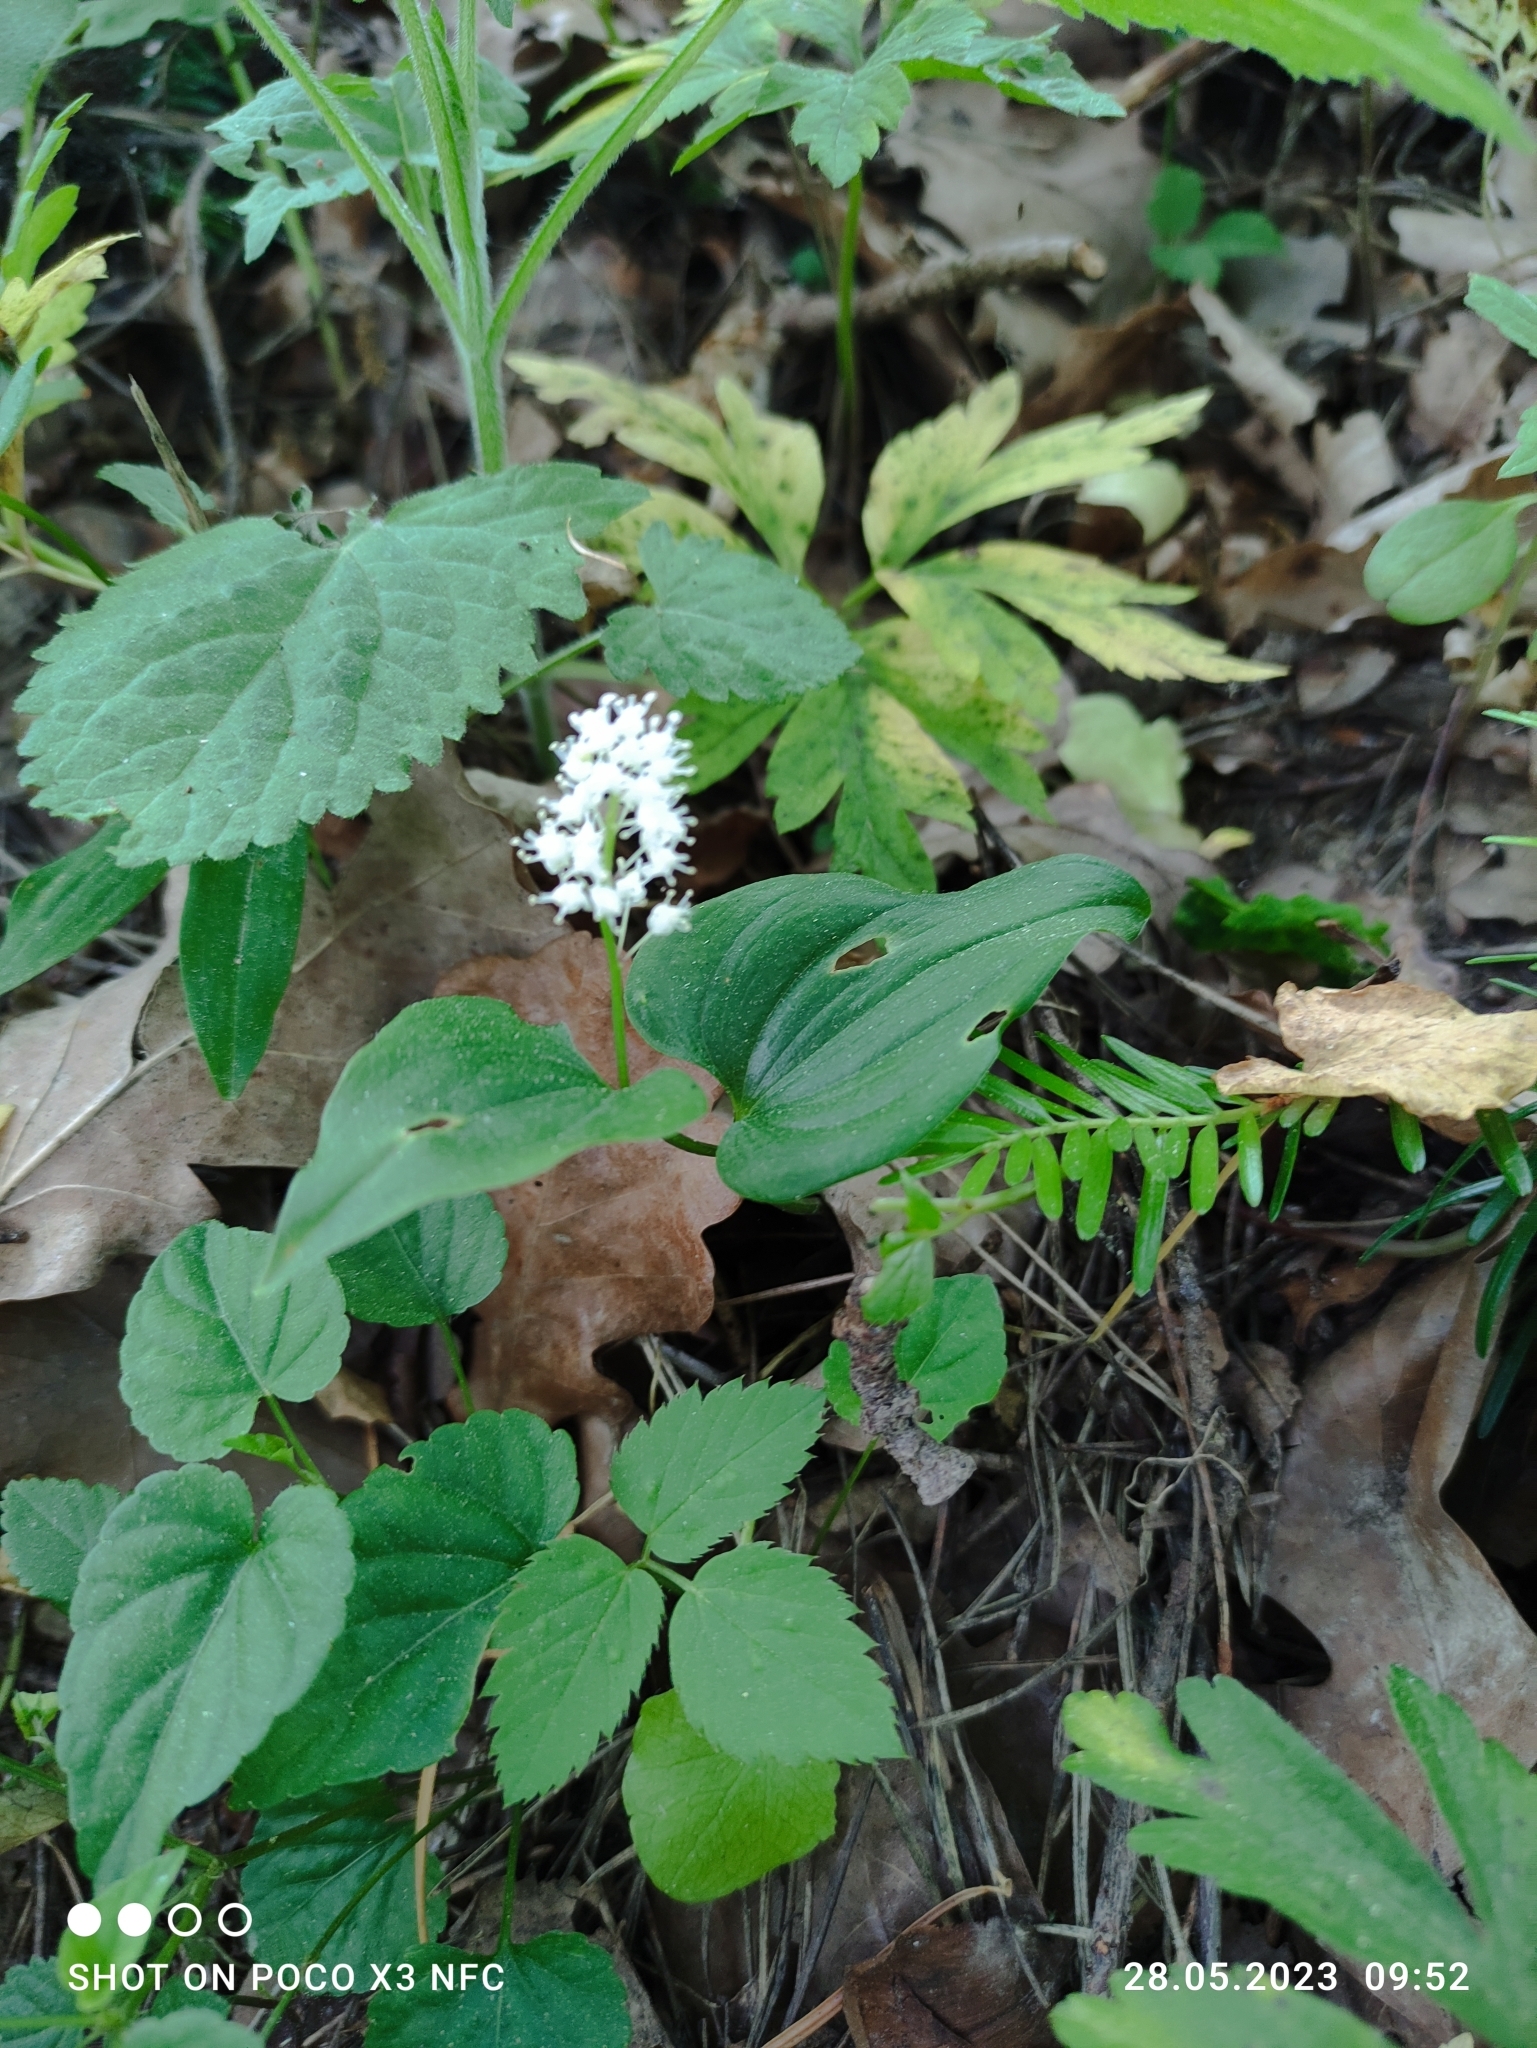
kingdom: Plantae
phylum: Tracheophyta
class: Liliopsida
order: Asparagales
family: Asparagaceae
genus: Maianthemum
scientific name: Maianthemum bifolium
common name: May lily
